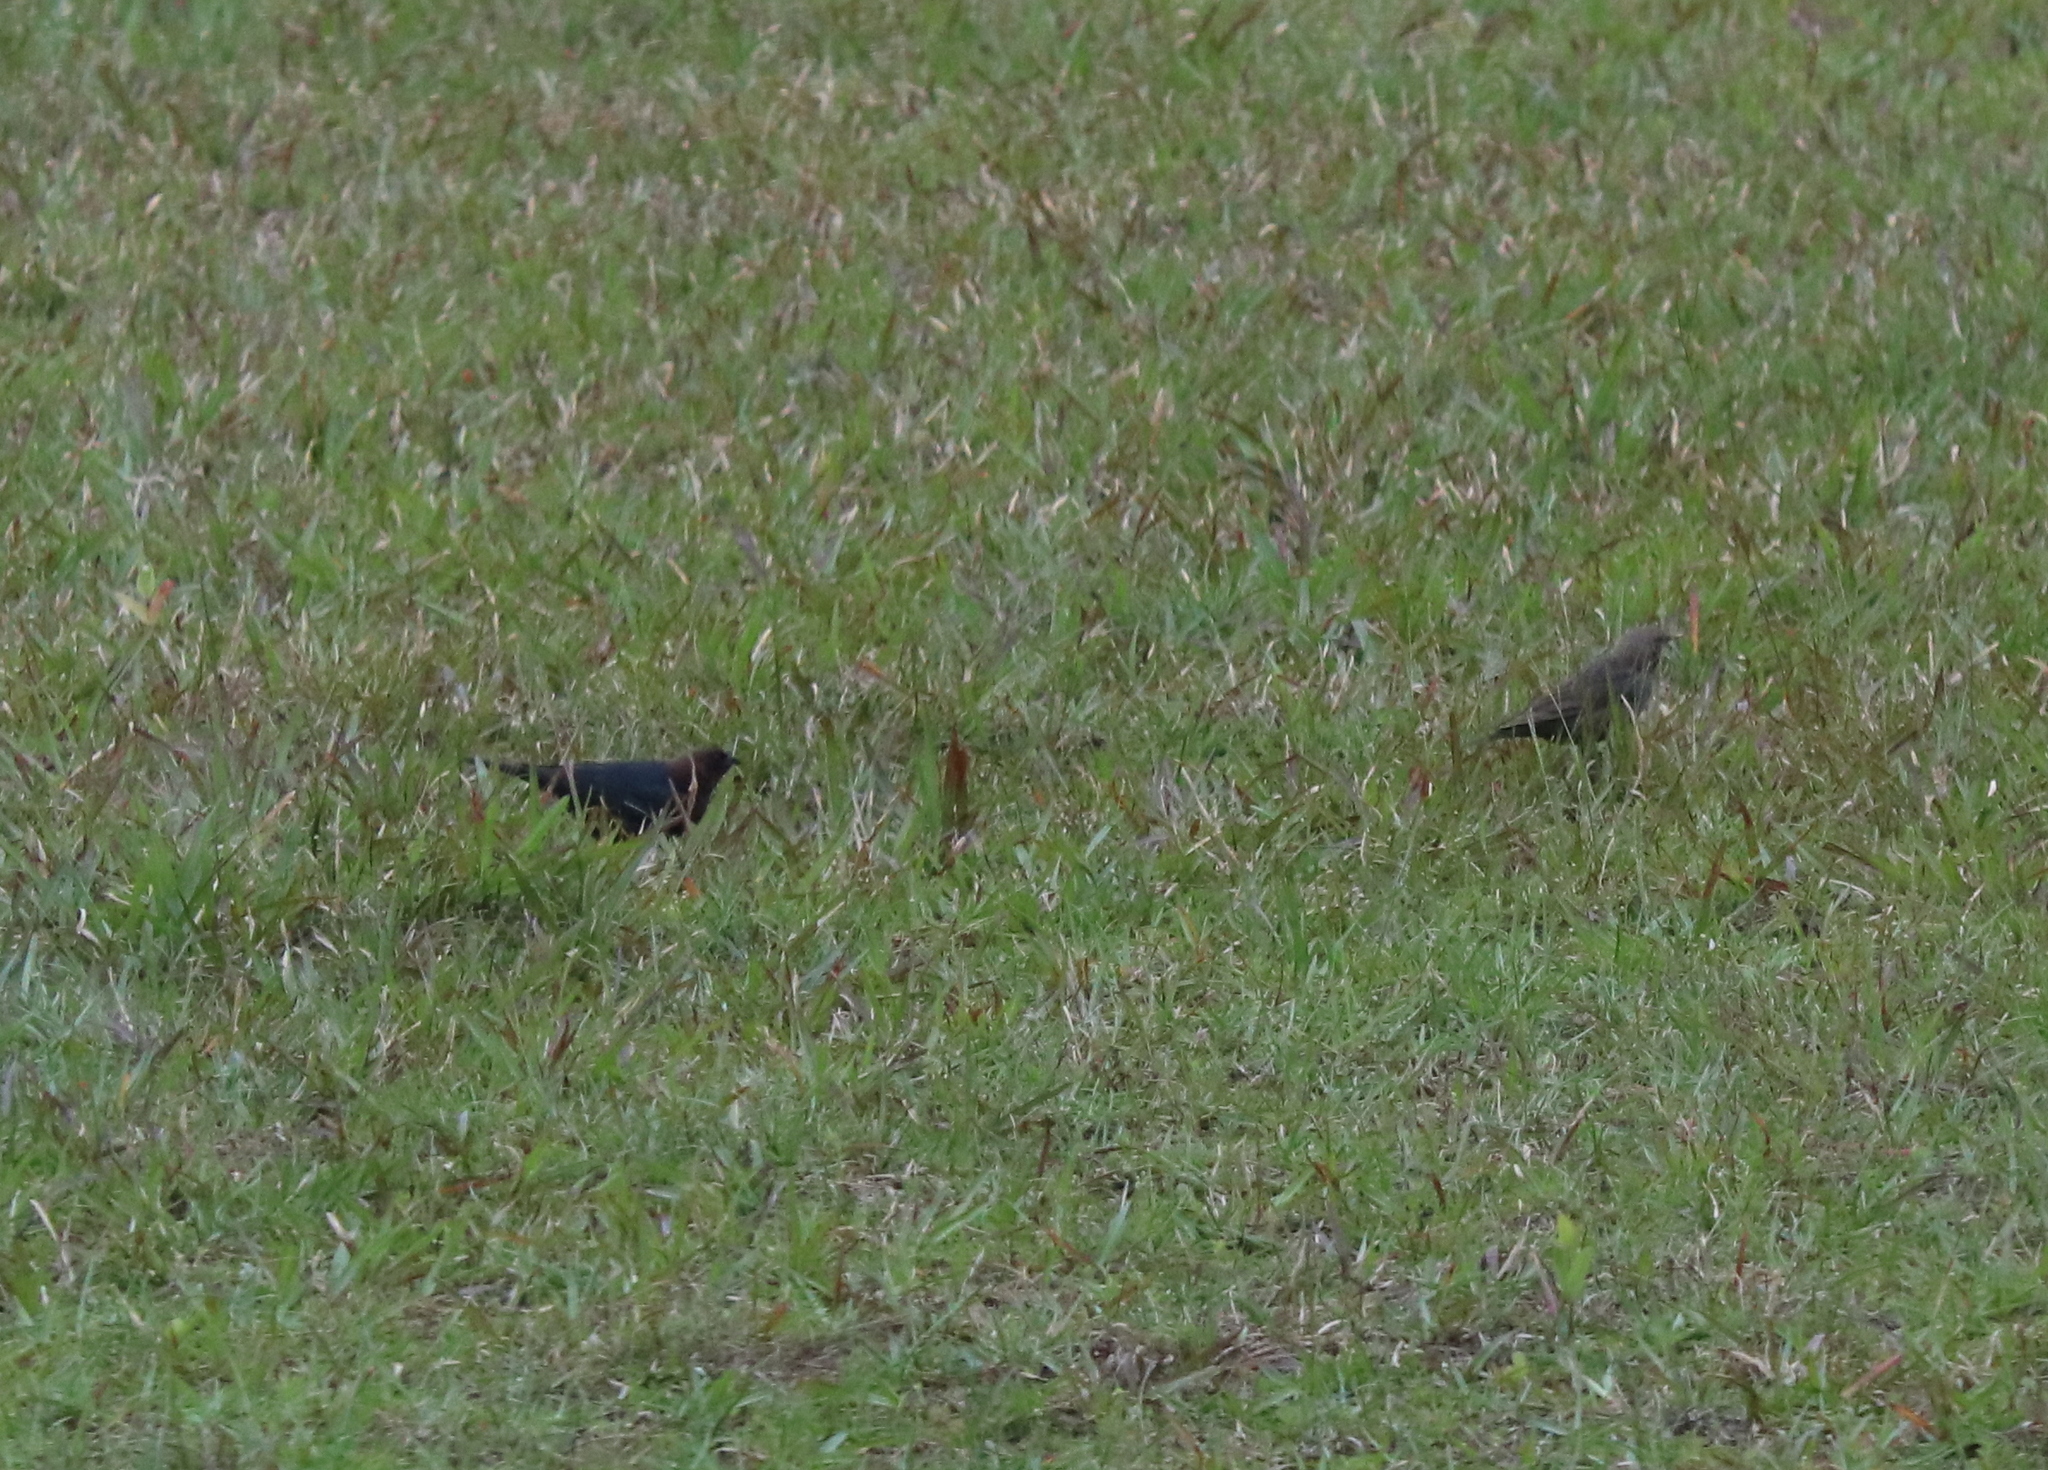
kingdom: Animalia
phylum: Chordata
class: Aves
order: Passeriformes
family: Icteridae
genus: Molothrus
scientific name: Molothrus ater
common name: Brown-headed cowbird
